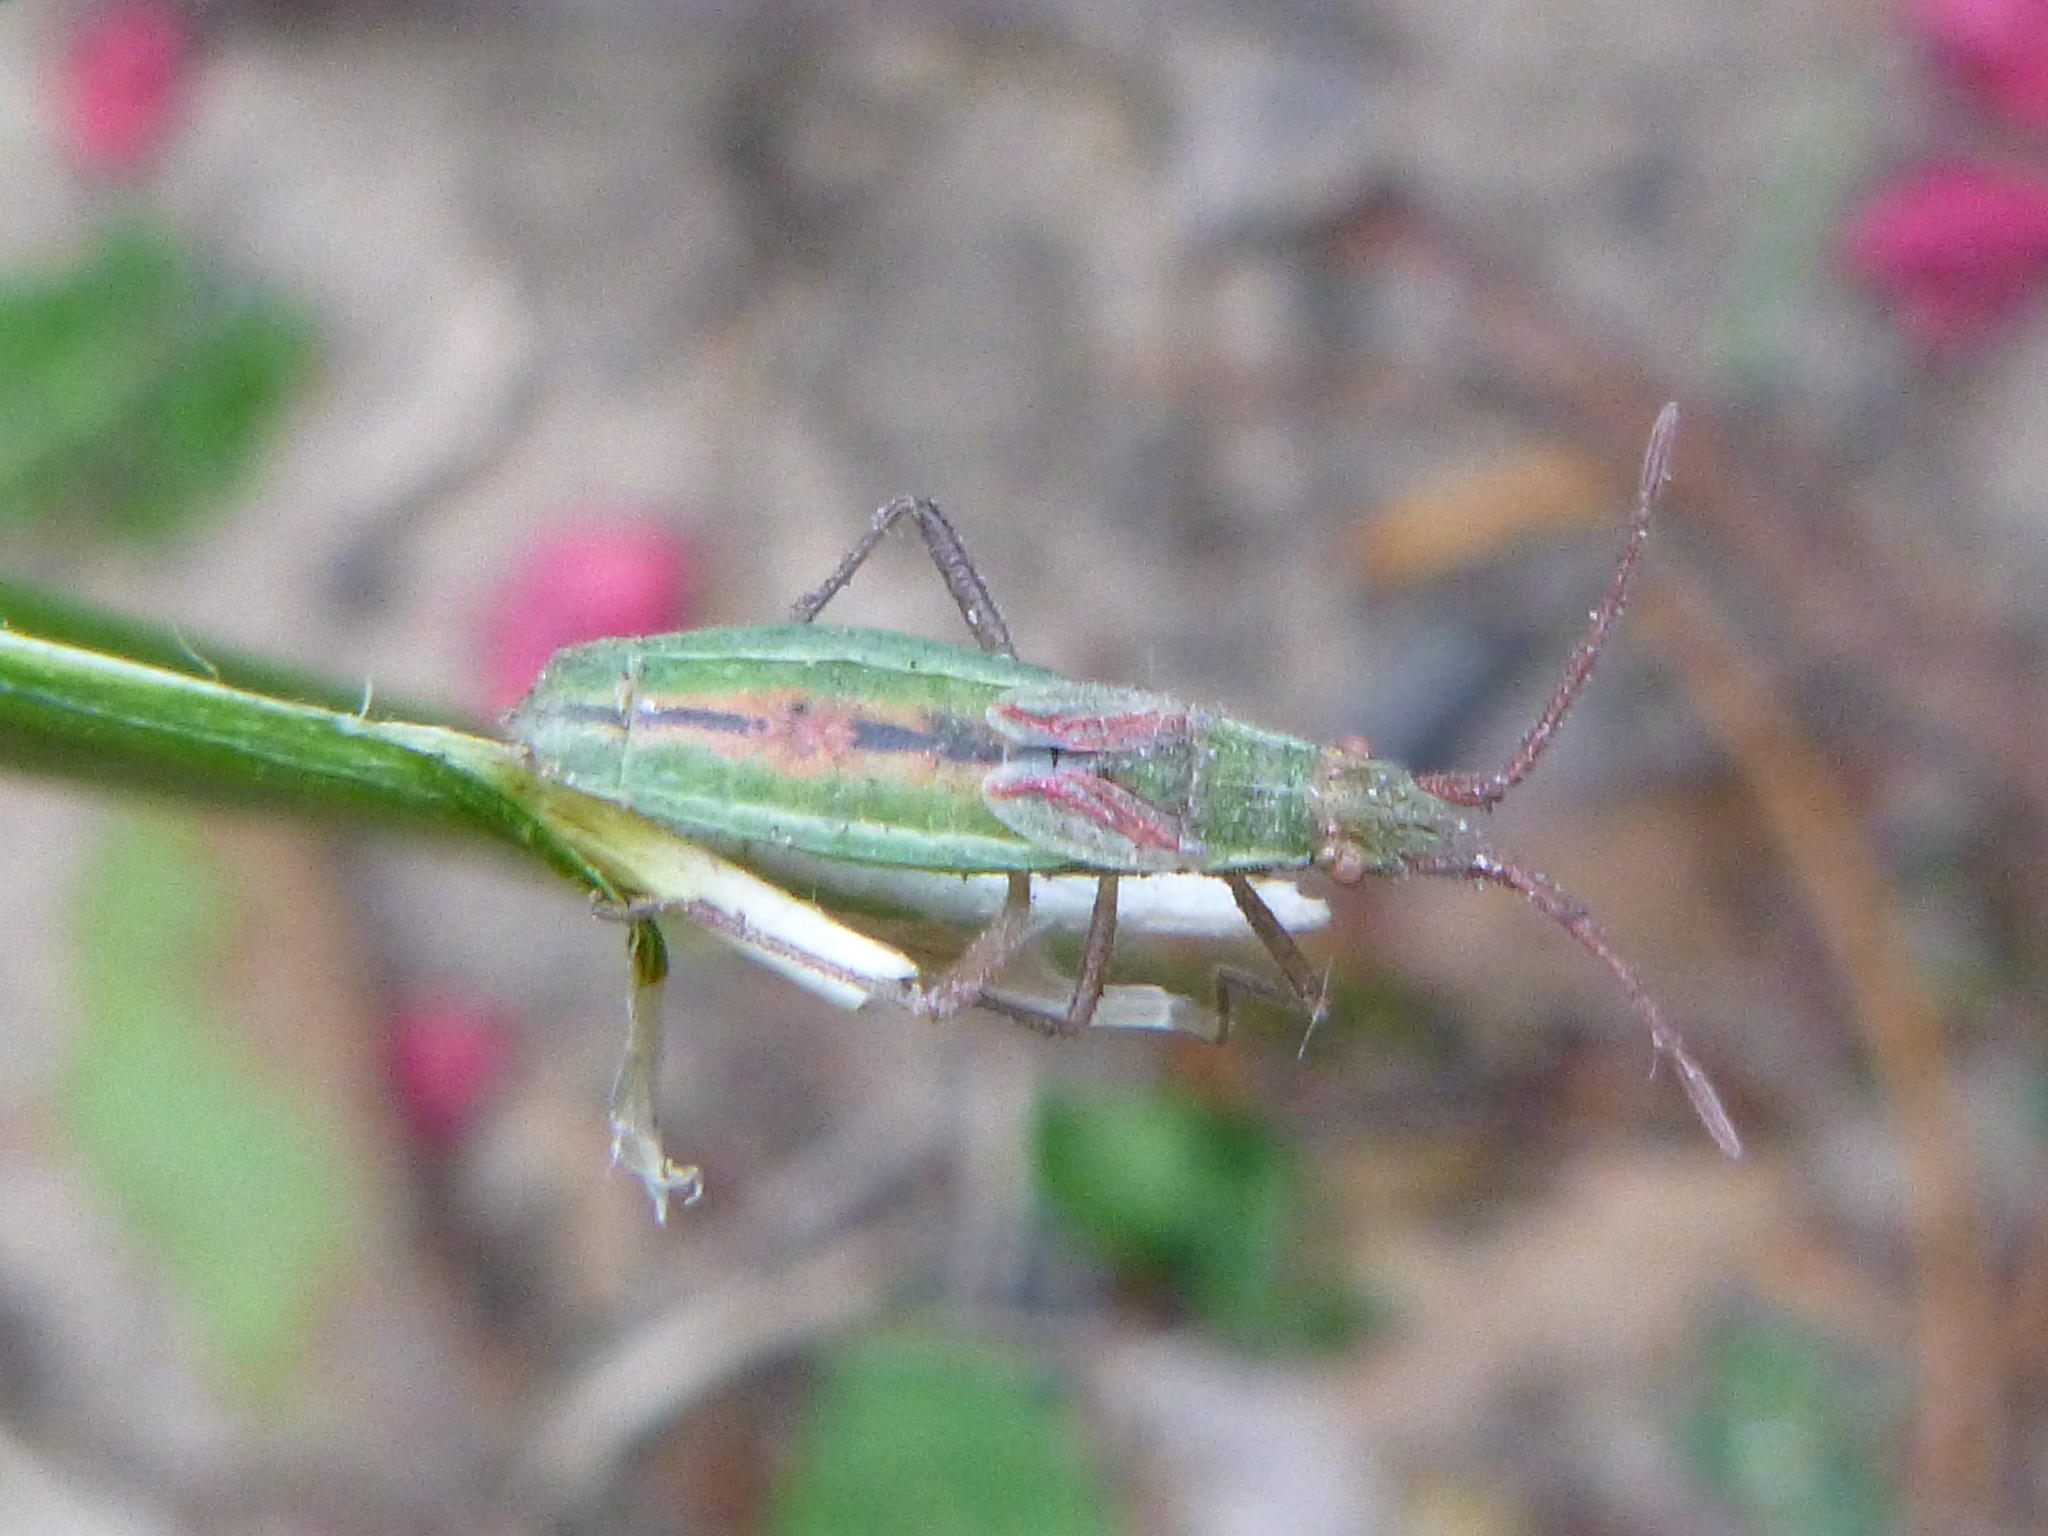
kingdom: Animalia
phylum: Arthropoda
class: Insecta
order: Hemiptera
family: Rhopalidae
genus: Myrmus
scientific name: Myrmus miriformis
